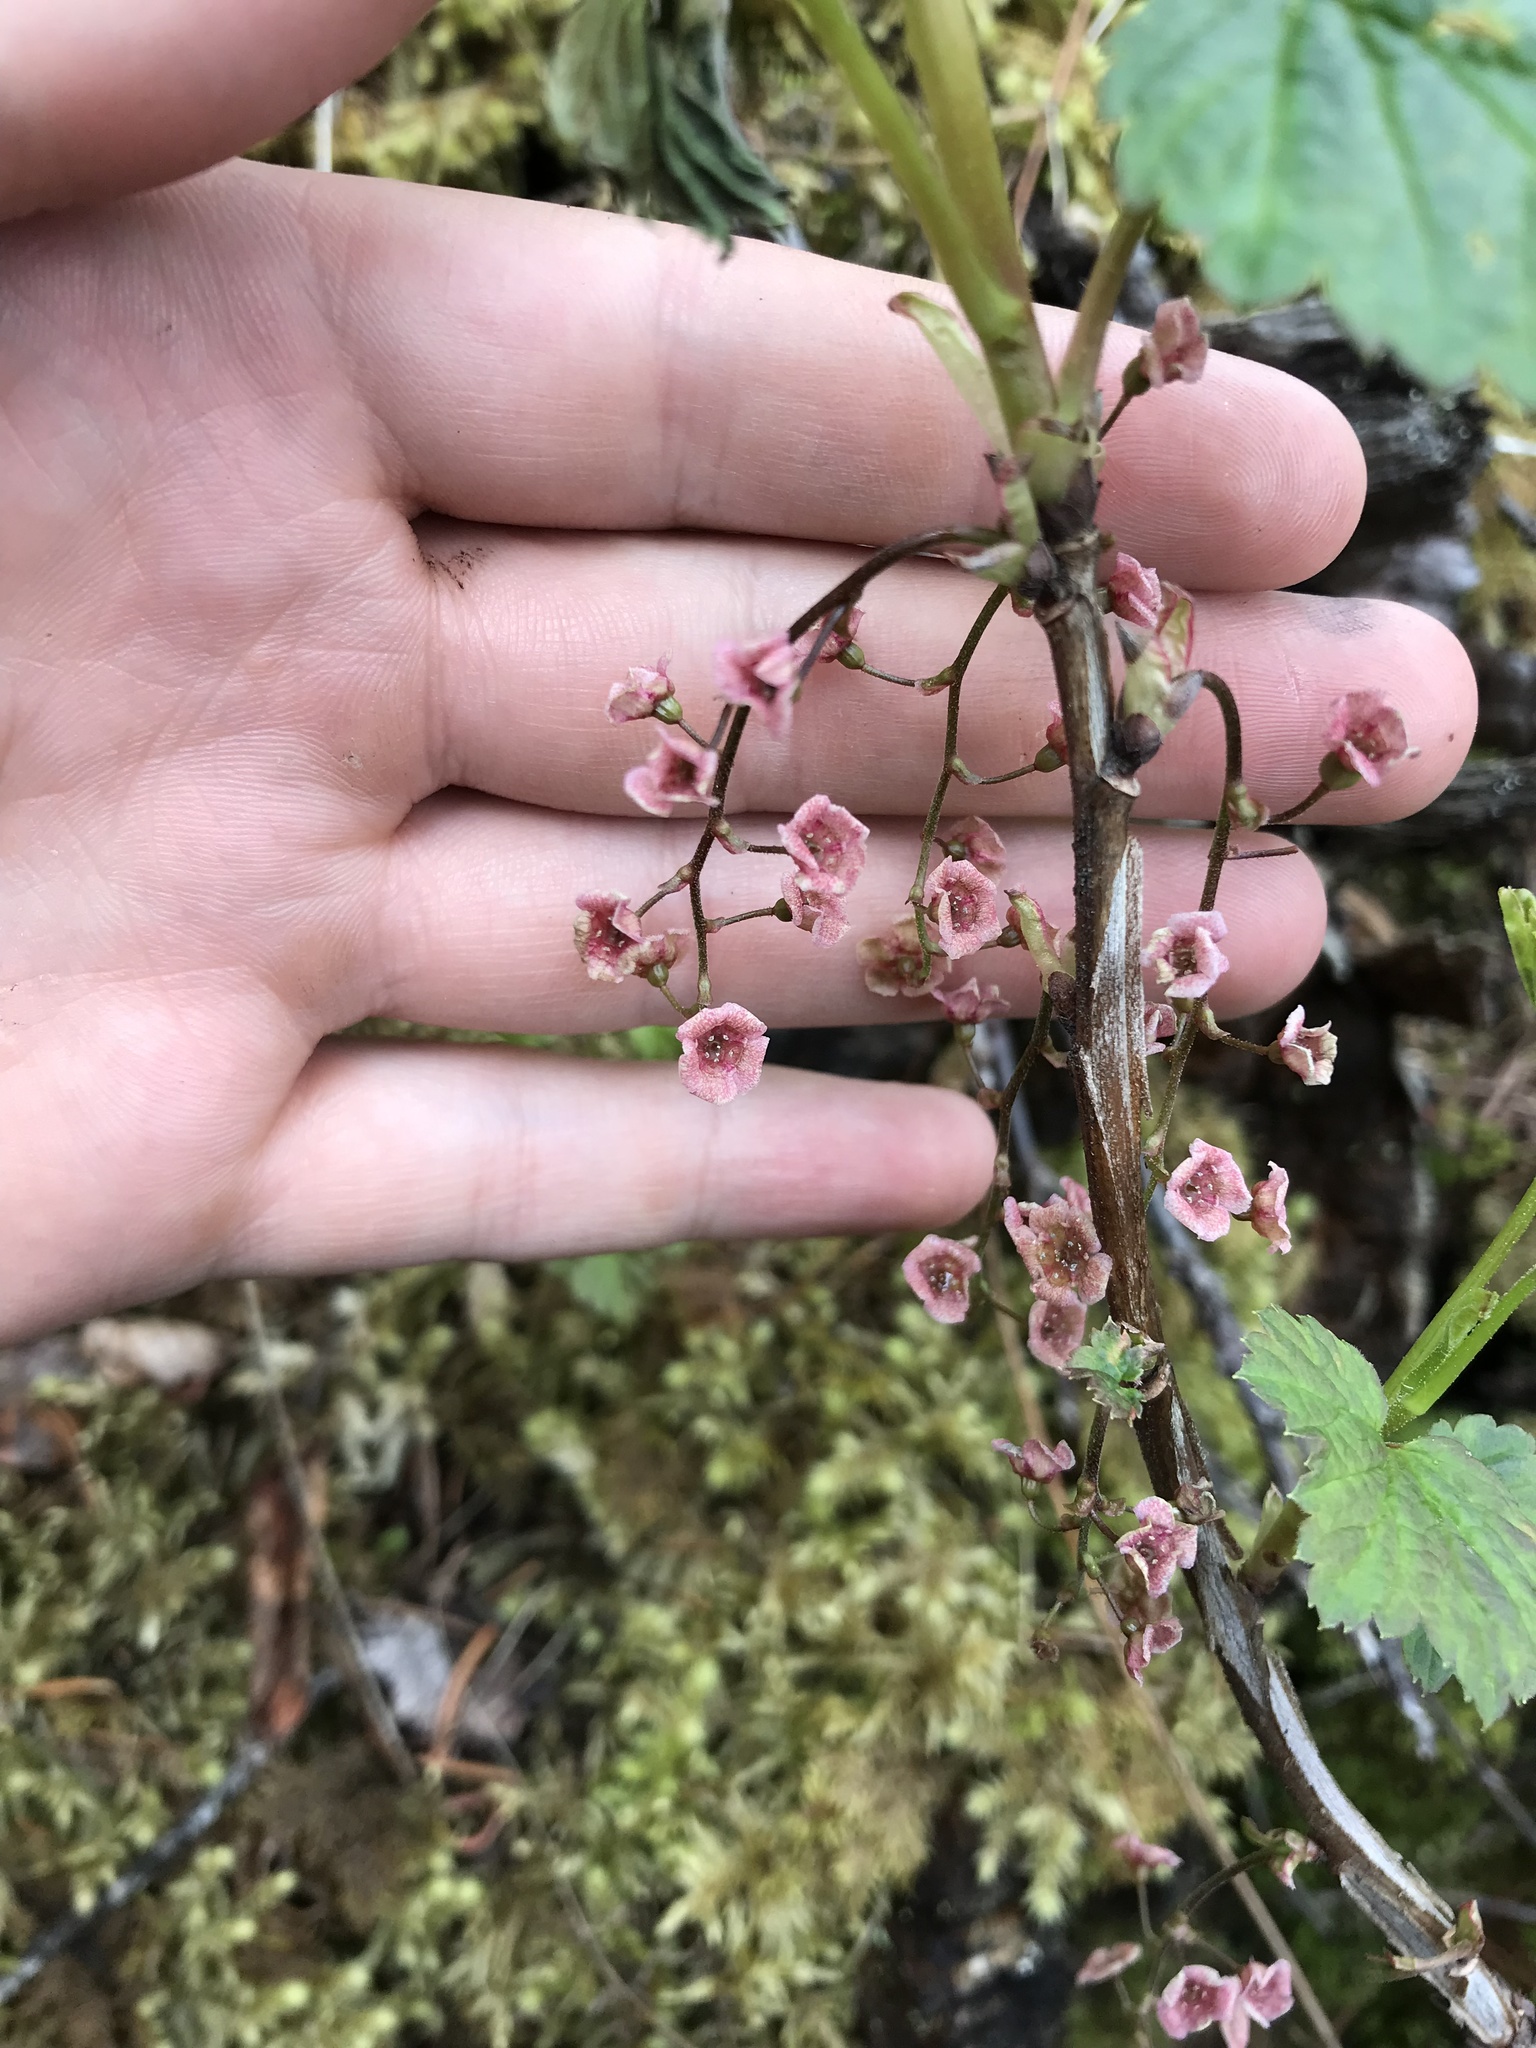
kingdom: Plantae
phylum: Tracheophyta
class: Magnoliopsida
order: Saxifragales
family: Grossulariaceae
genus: Ribes
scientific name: Ribes triste
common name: Swamp red currant
